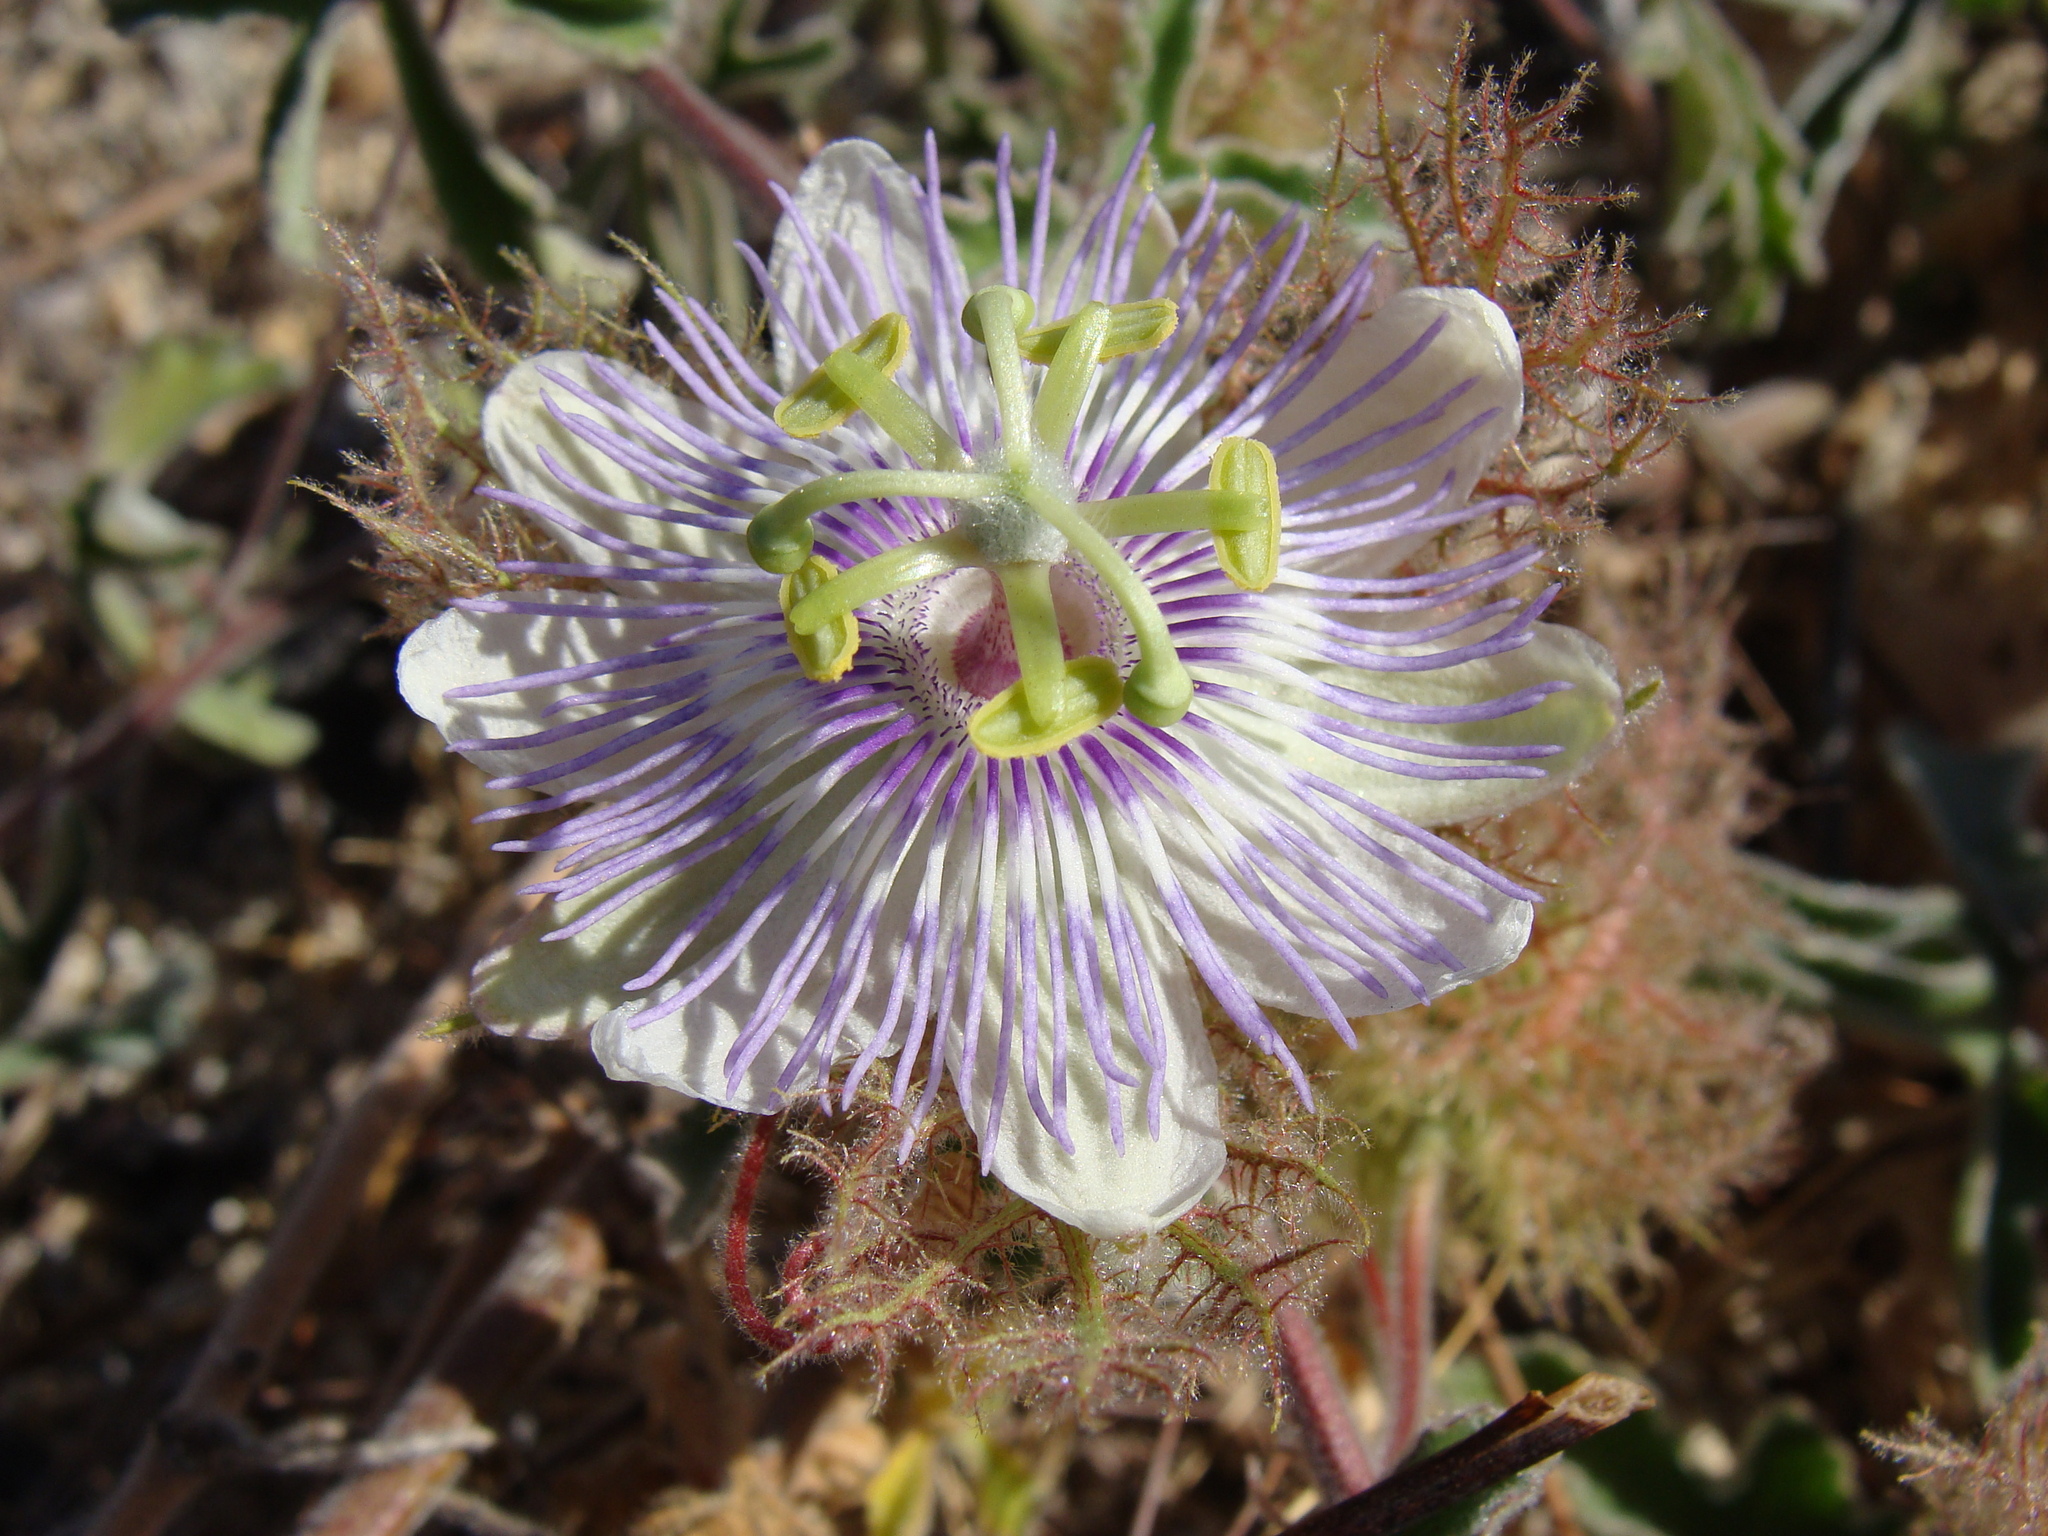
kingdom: Plantae
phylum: Tracheophyta
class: Magnoliopsida
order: Malpighiales
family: Passifloraceae
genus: Passiflora
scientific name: Passiflora pentaschista
